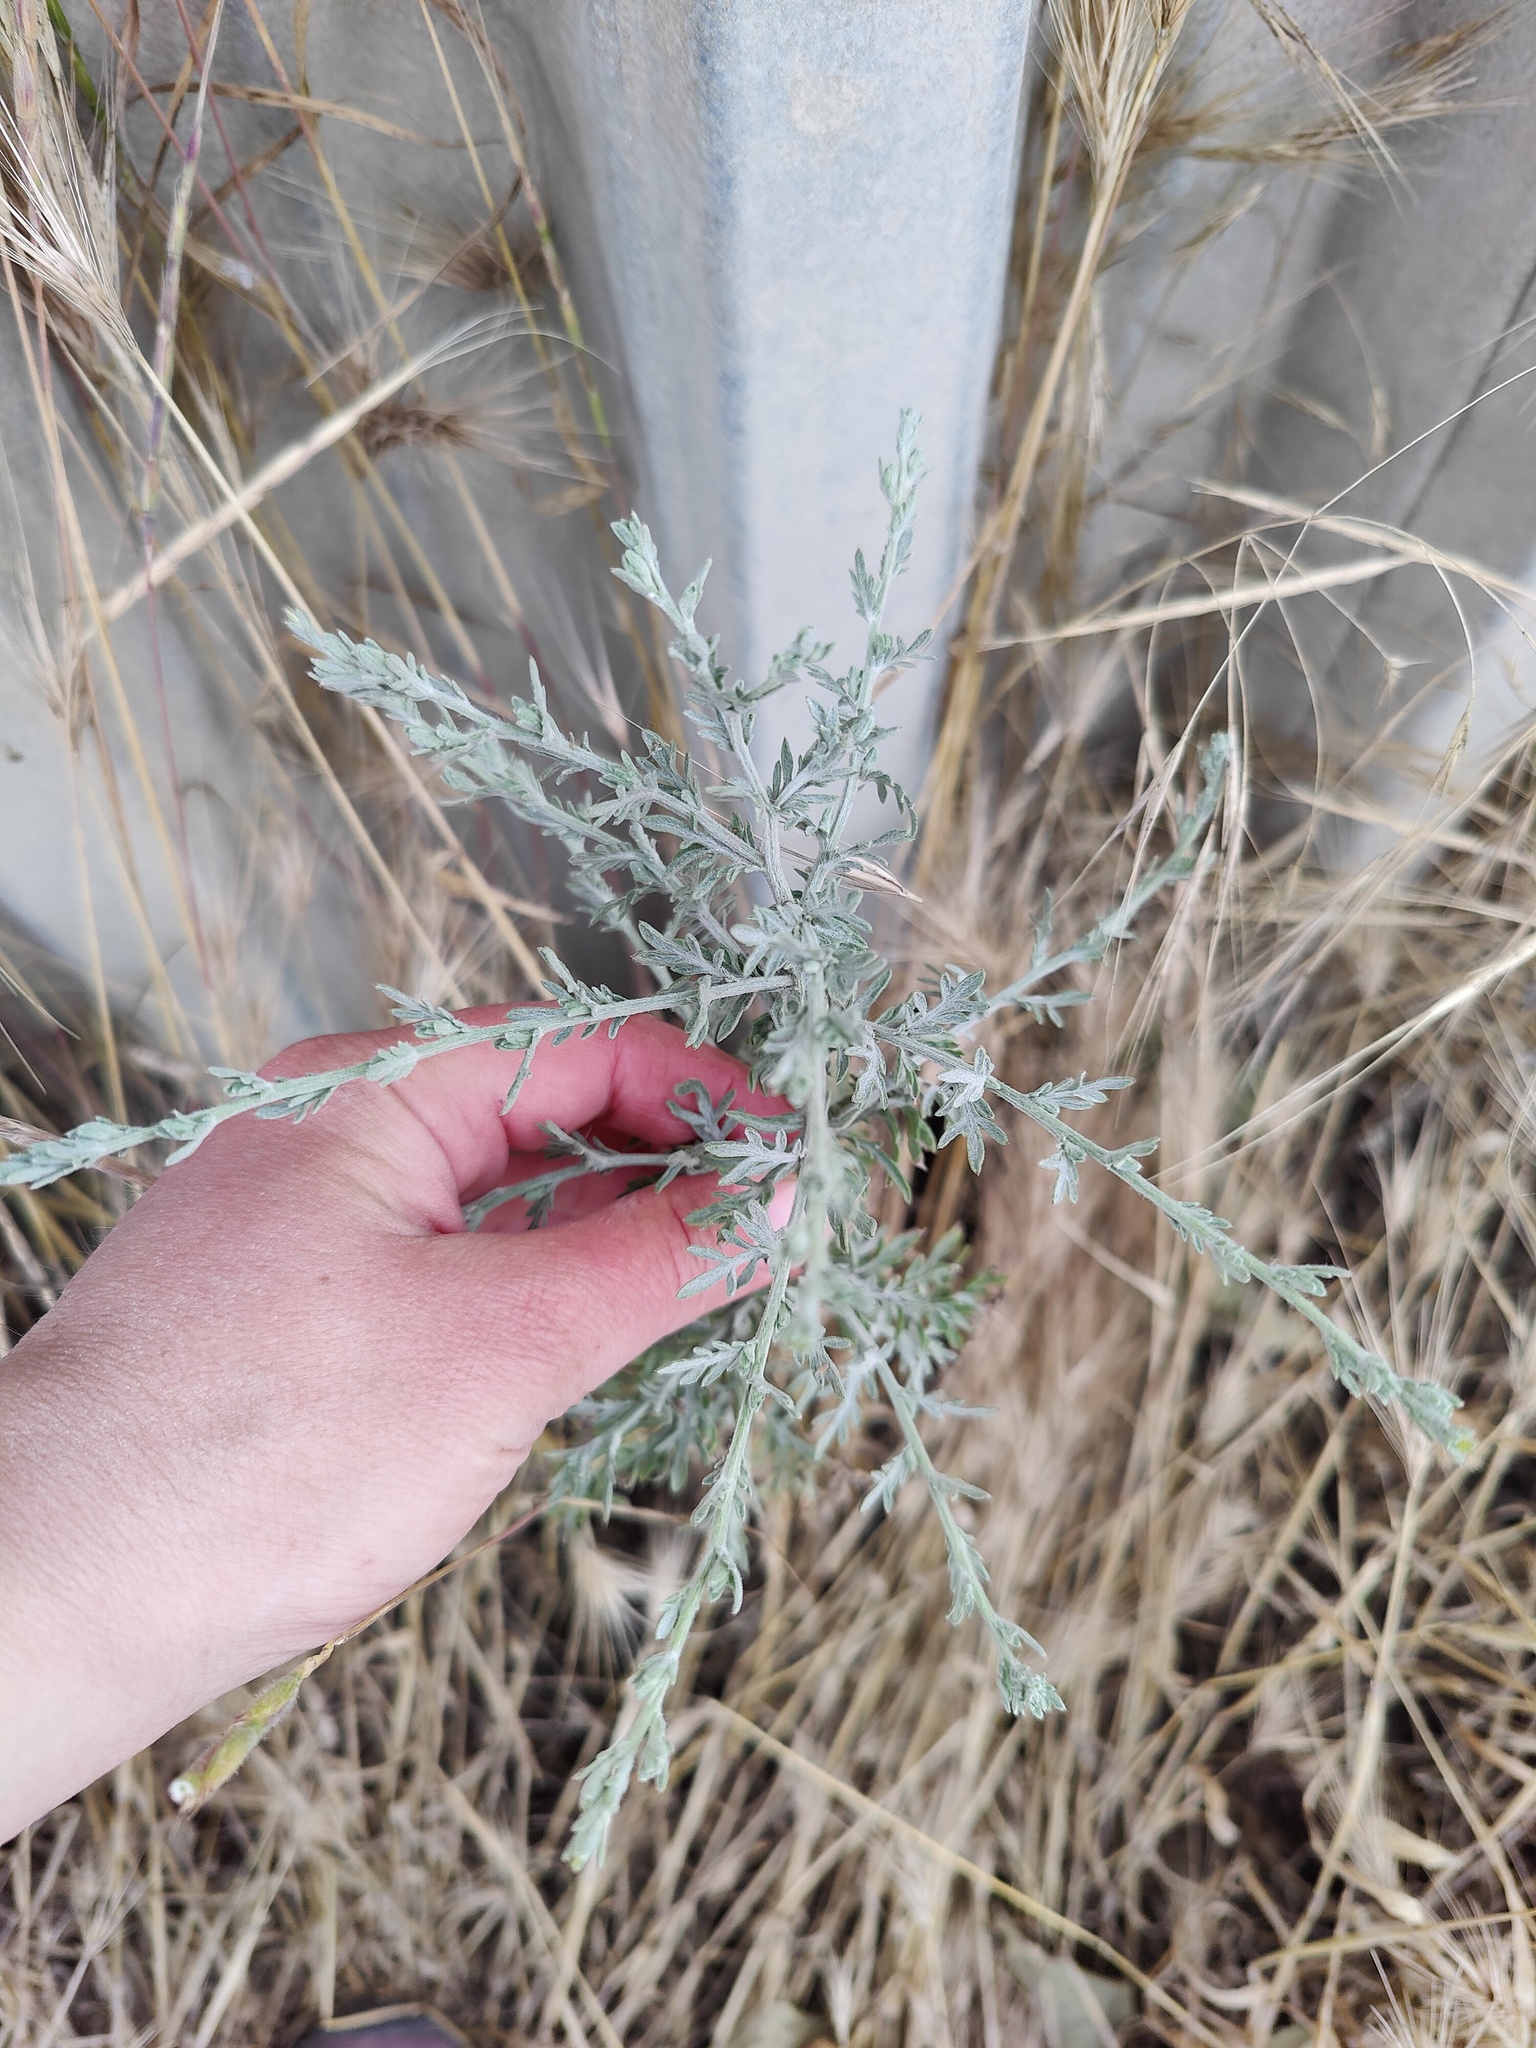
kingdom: Plantae
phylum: Tracheophyta
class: Magnoliopsida
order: Asterales
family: Asteraceae
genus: Centaurea
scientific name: Centaurea diffusa
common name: Diffuse knapweed
